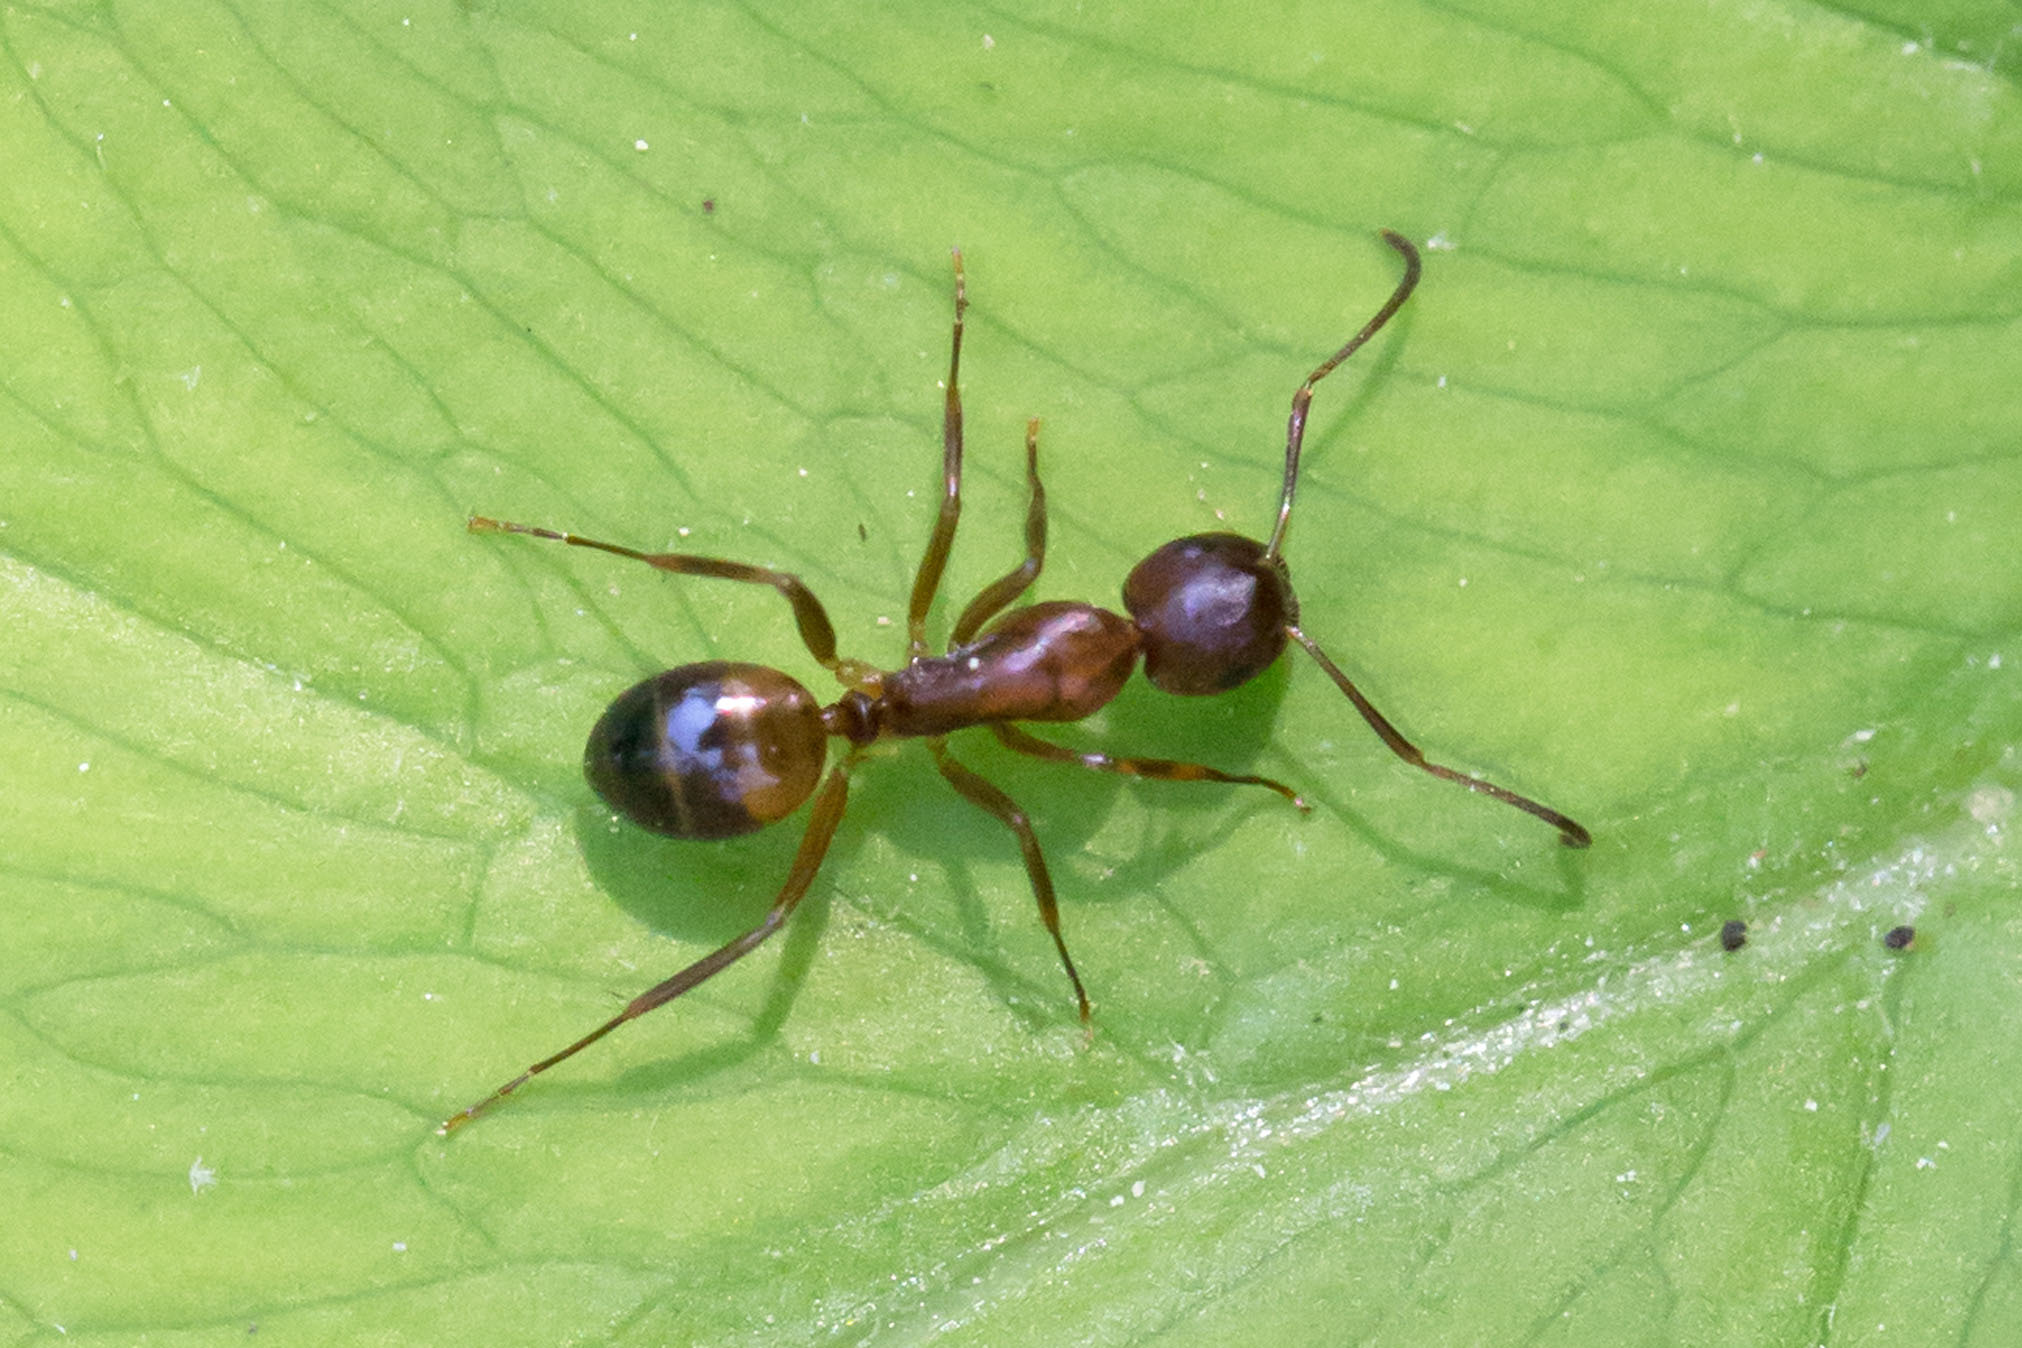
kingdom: Animalia
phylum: Arthropoda
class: Insecta
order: Hymenoptera
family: Formicidae
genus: Camponotus
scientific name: Camponotus subbarbatus
